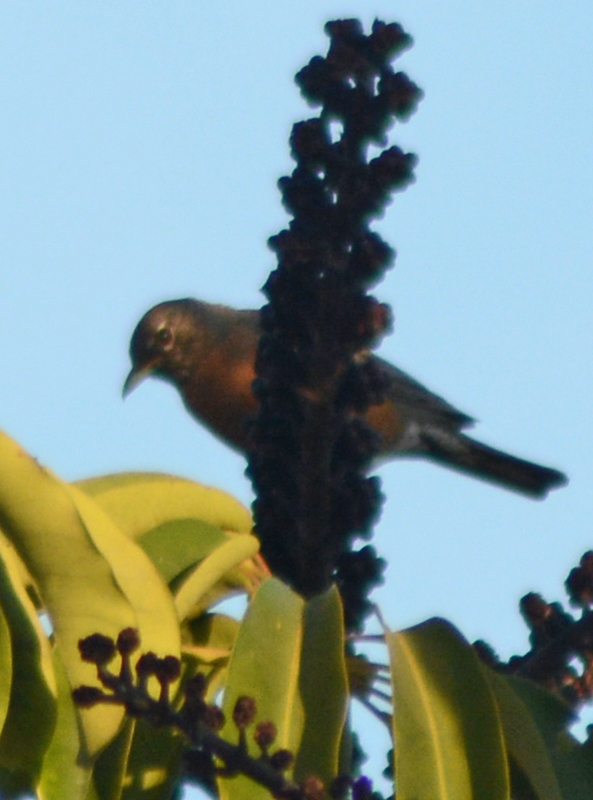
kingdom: Animalia
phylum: Chordata
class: Aves
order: Passeriformes
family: Turdidae
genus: Turdus
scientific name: Turdus migratorius
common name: American robin
